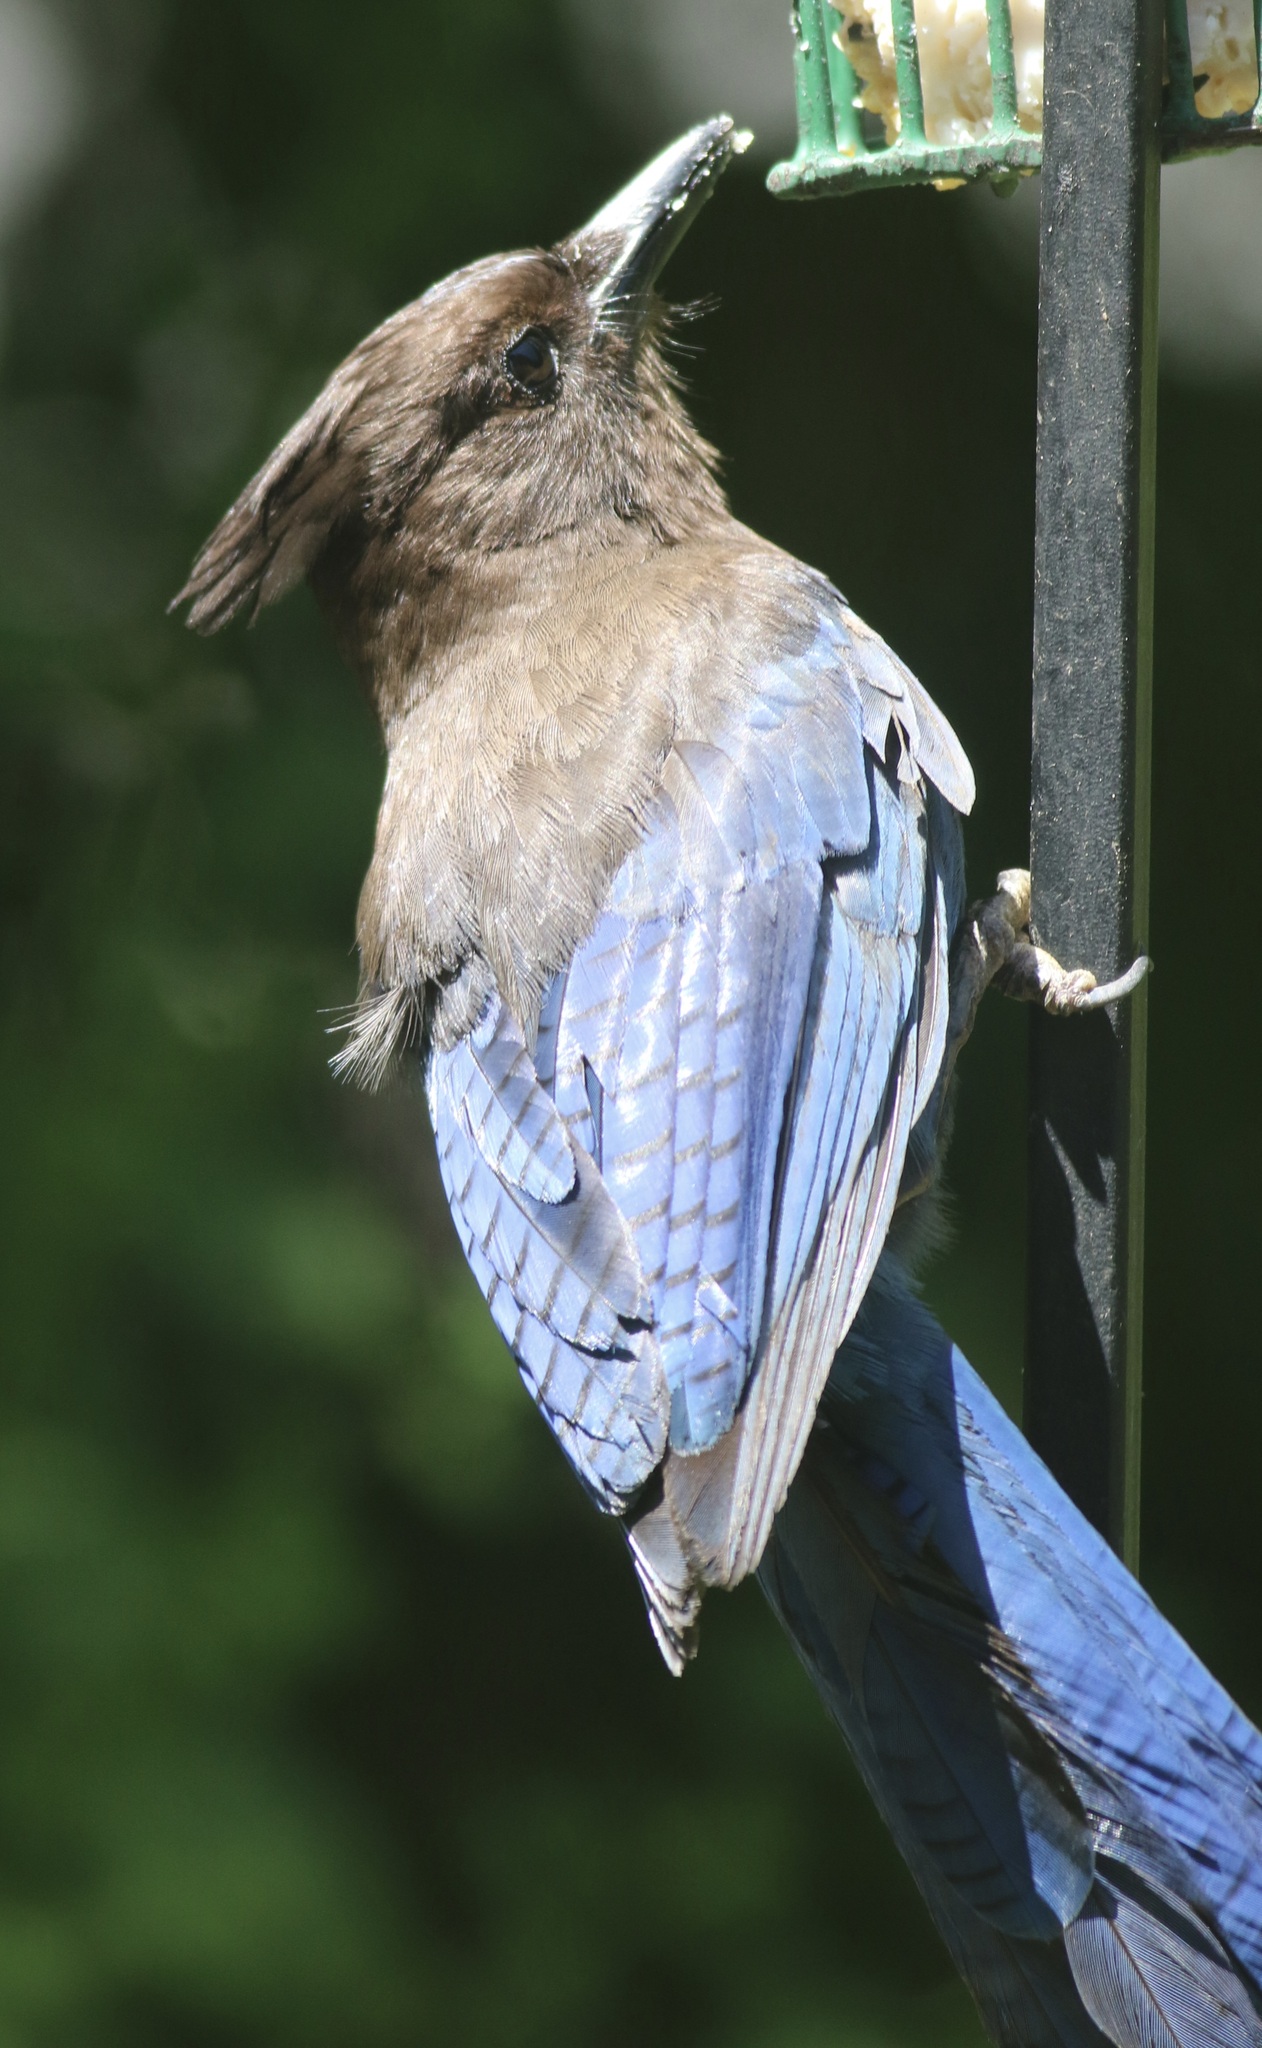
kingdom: Animalia
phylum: Chordata
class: Aves
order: Passeriformes
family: Corvidae
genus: Cyanocitta
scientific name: Cyanocitta stelleri
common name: Steller's jay
